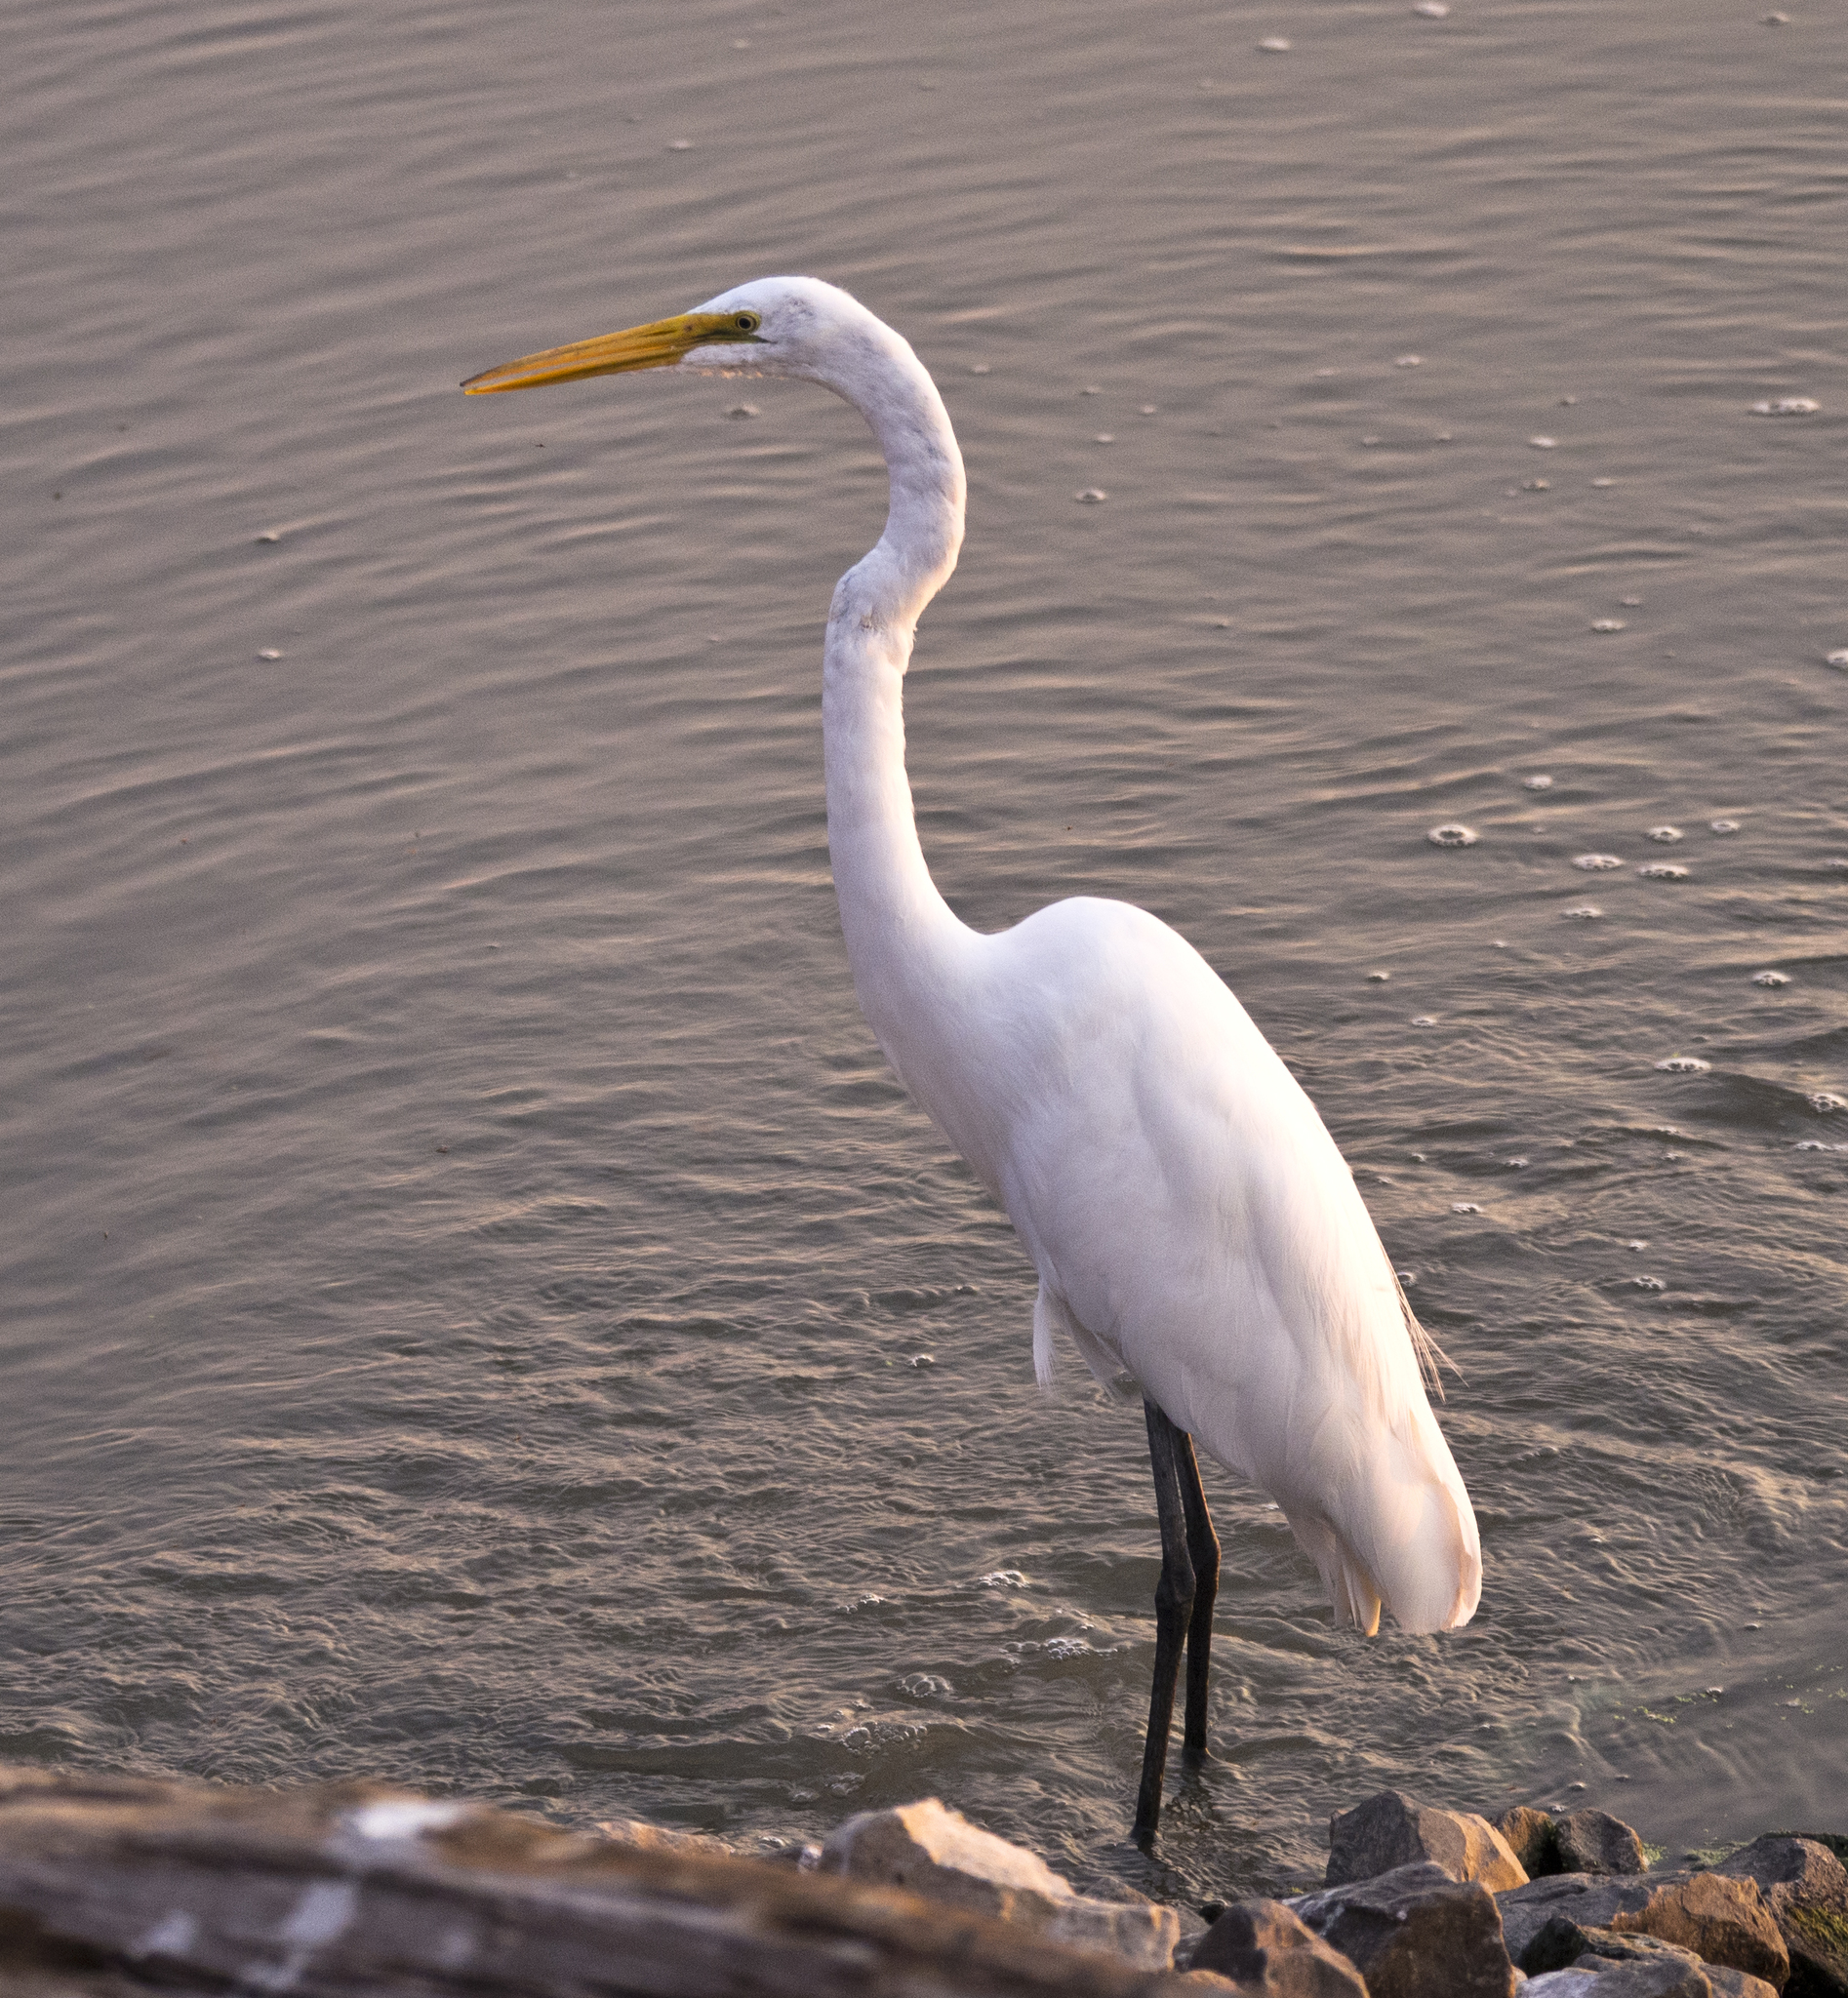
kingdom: Animalia
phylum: Chordata
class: Aves
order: Pelecaniformes
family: Ardeidae
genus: Ardea
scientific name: Ardea alba
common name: Great egret
